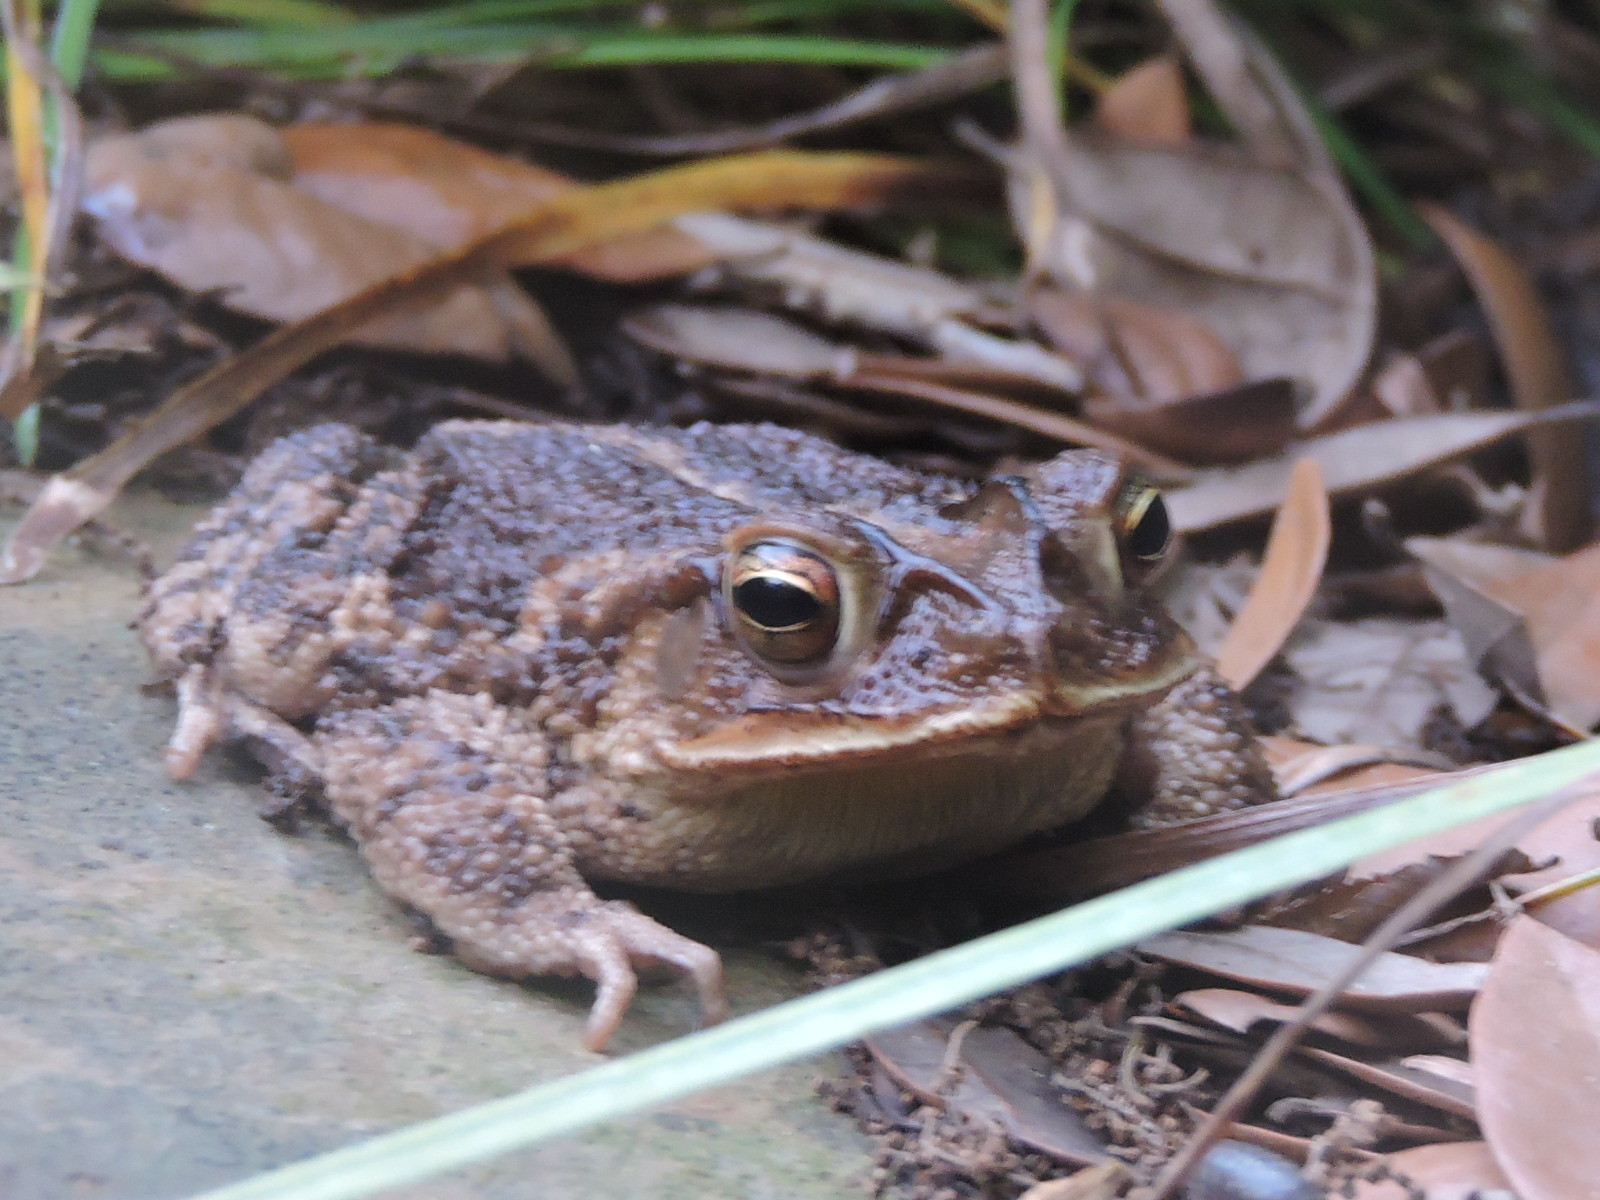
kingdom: Animalia
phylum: Chordata
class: Amphibia
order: Anura
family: Bufonidae
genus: Incilius
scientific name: Incilius nebulifer
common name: Gulf coast toad
